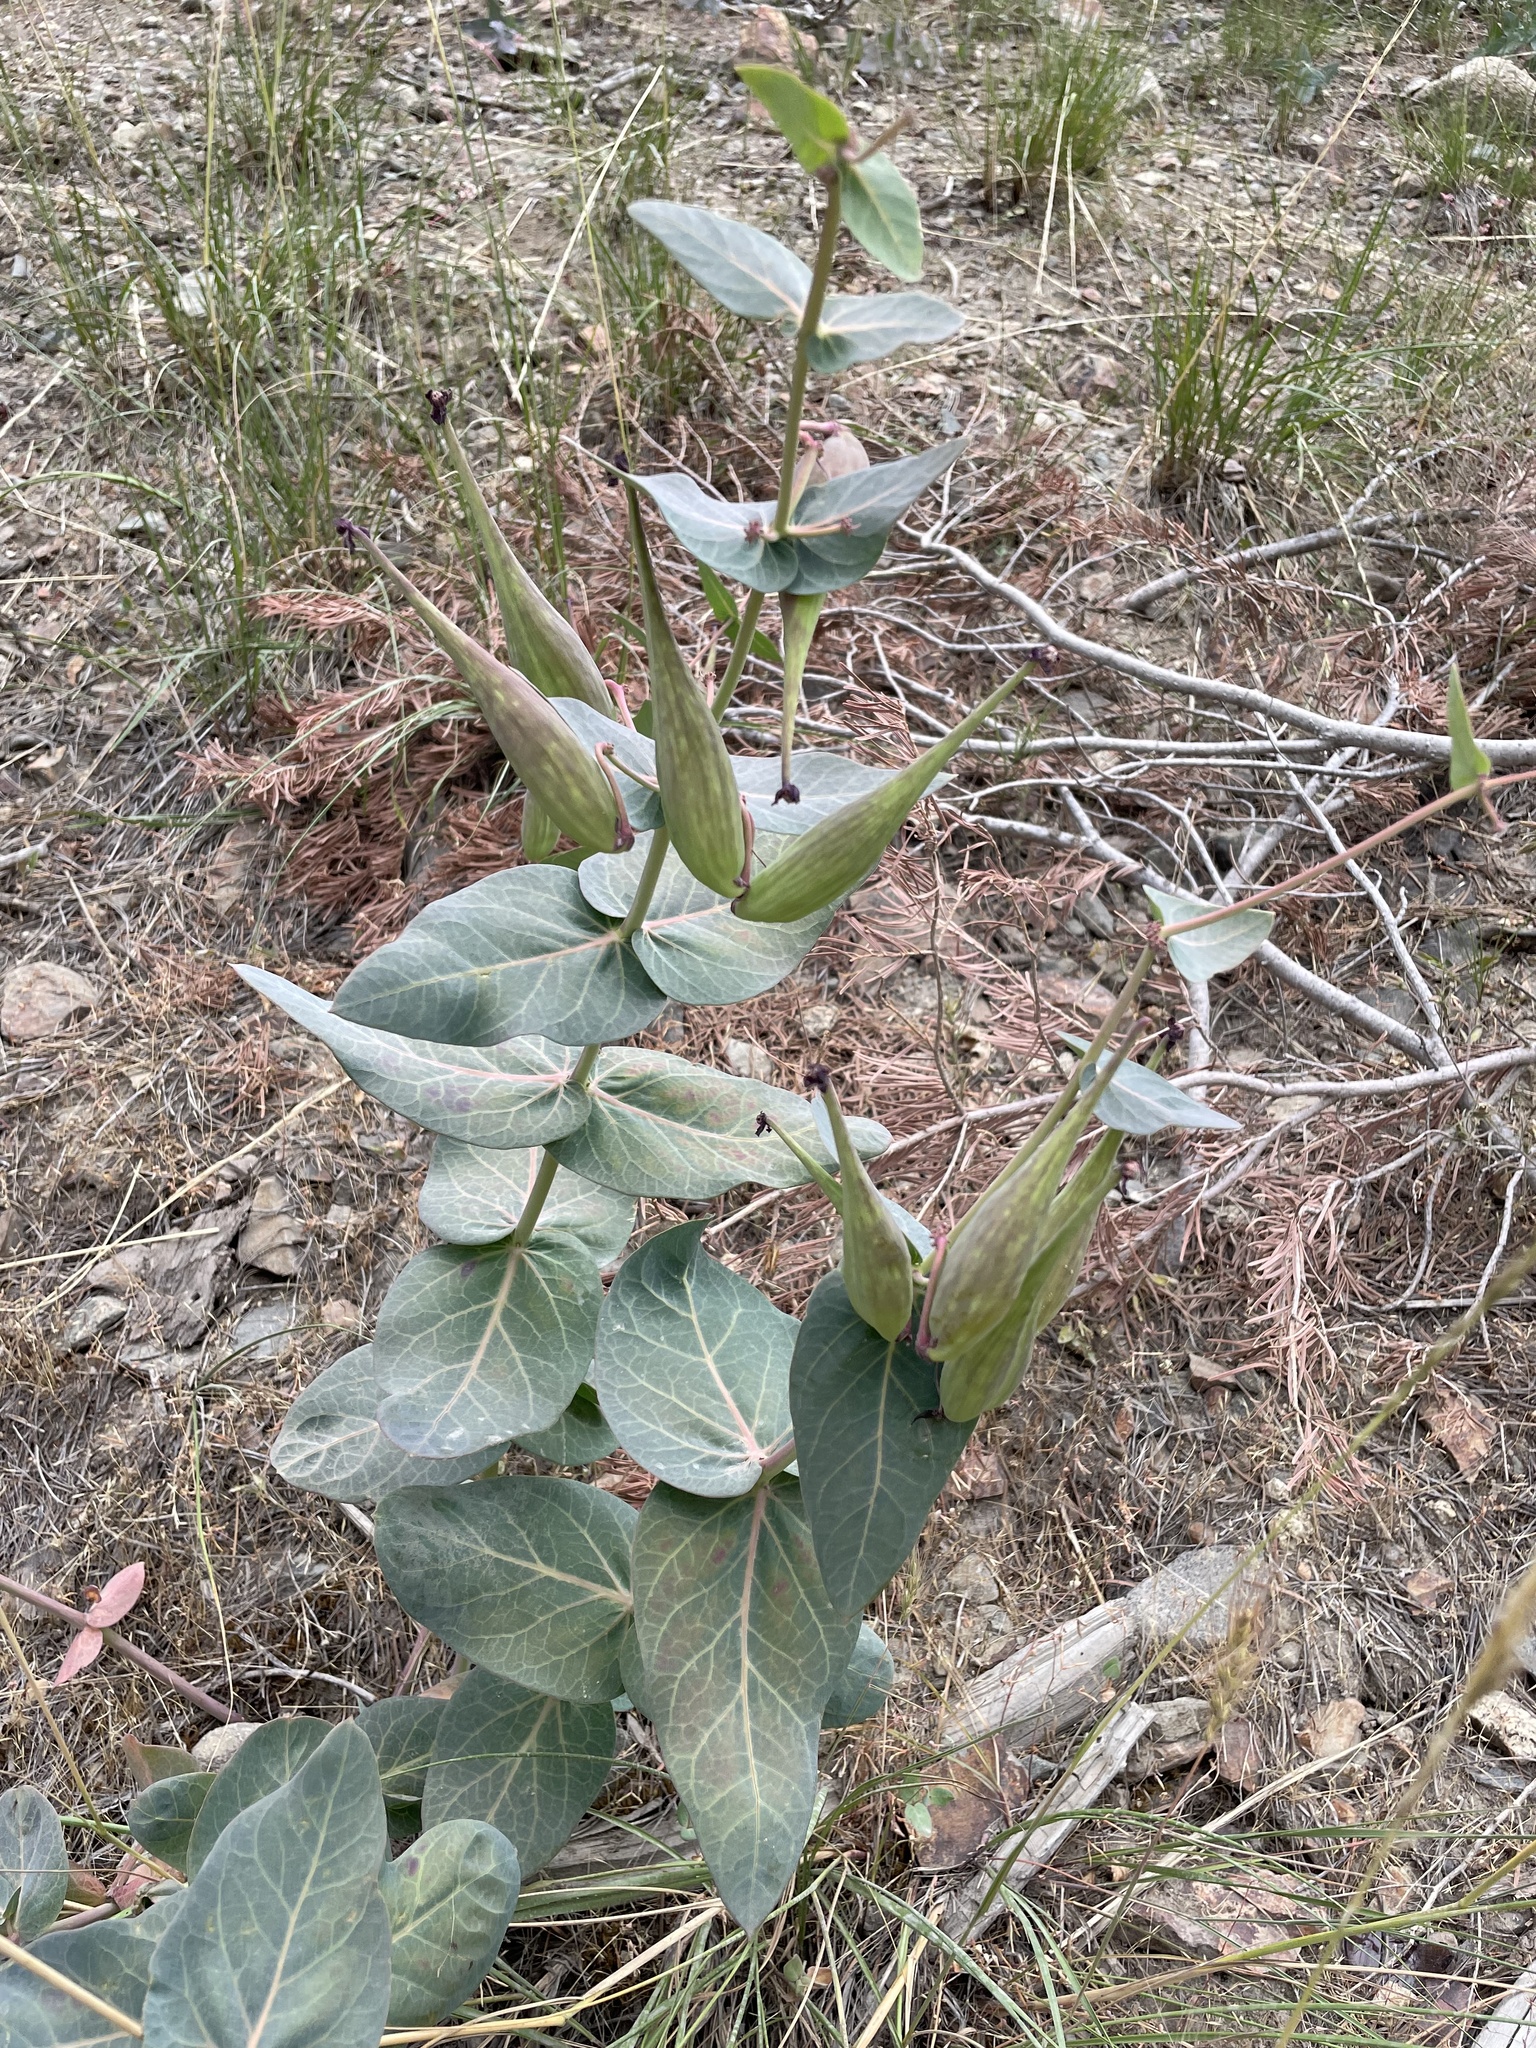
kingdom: Plantae
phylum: Tracheophyta
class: Magnoliopsida
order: Gentianales
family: Apocynaceae
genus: Asclepias
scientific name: Asclepias cordifolia
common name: Purple milkweed
